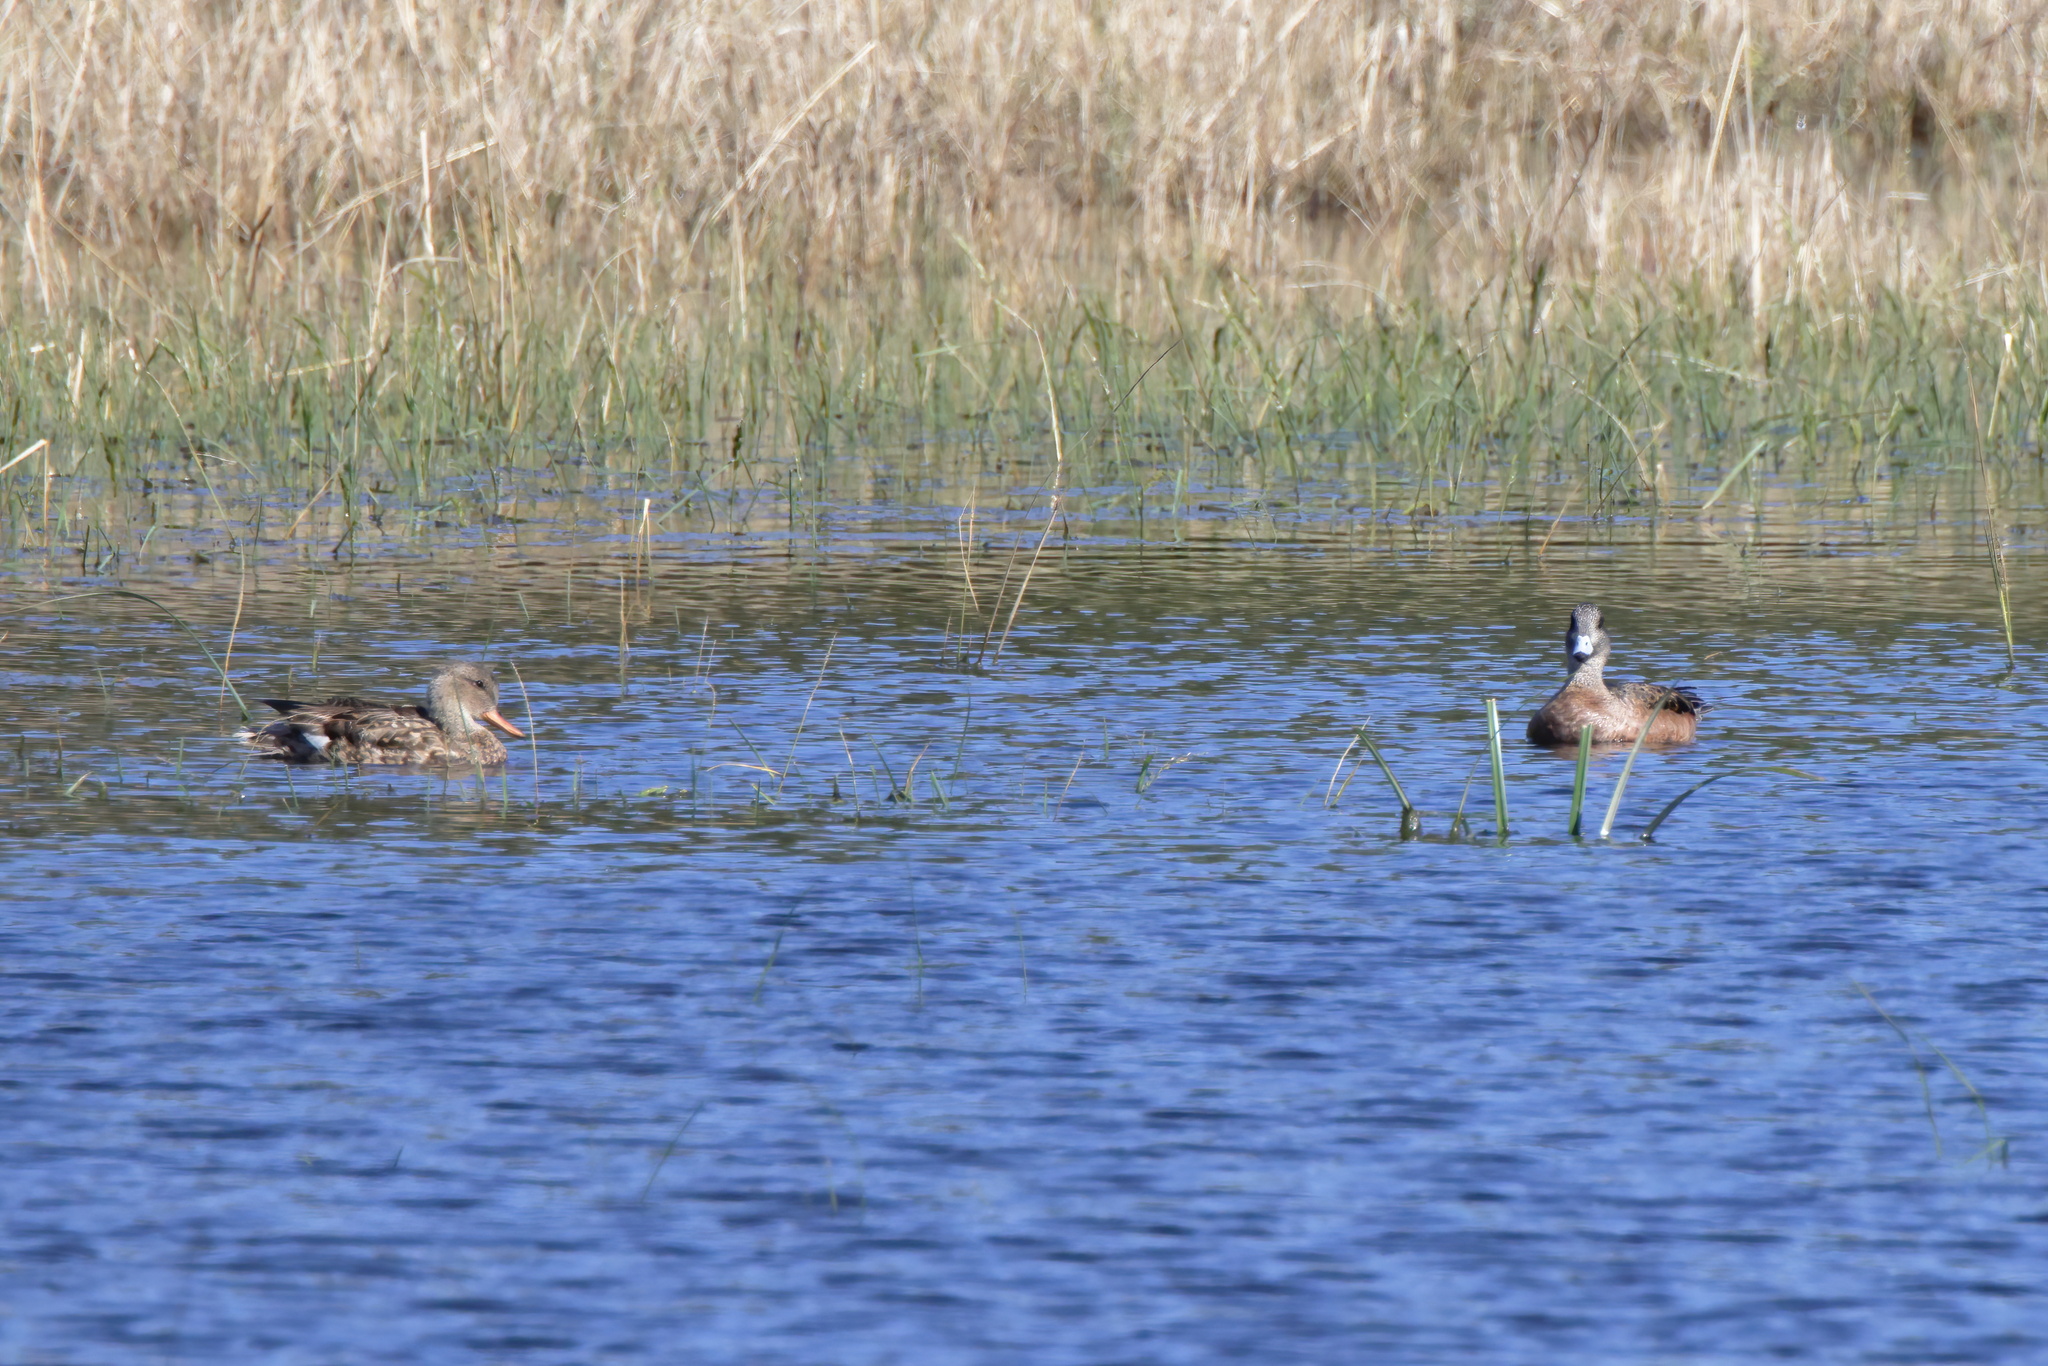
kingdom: Animalia
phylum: Chordata
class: Aves
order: Anseriformes
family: Anatidae
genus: Mareca
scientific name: Mareca americana
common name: American wigeon
